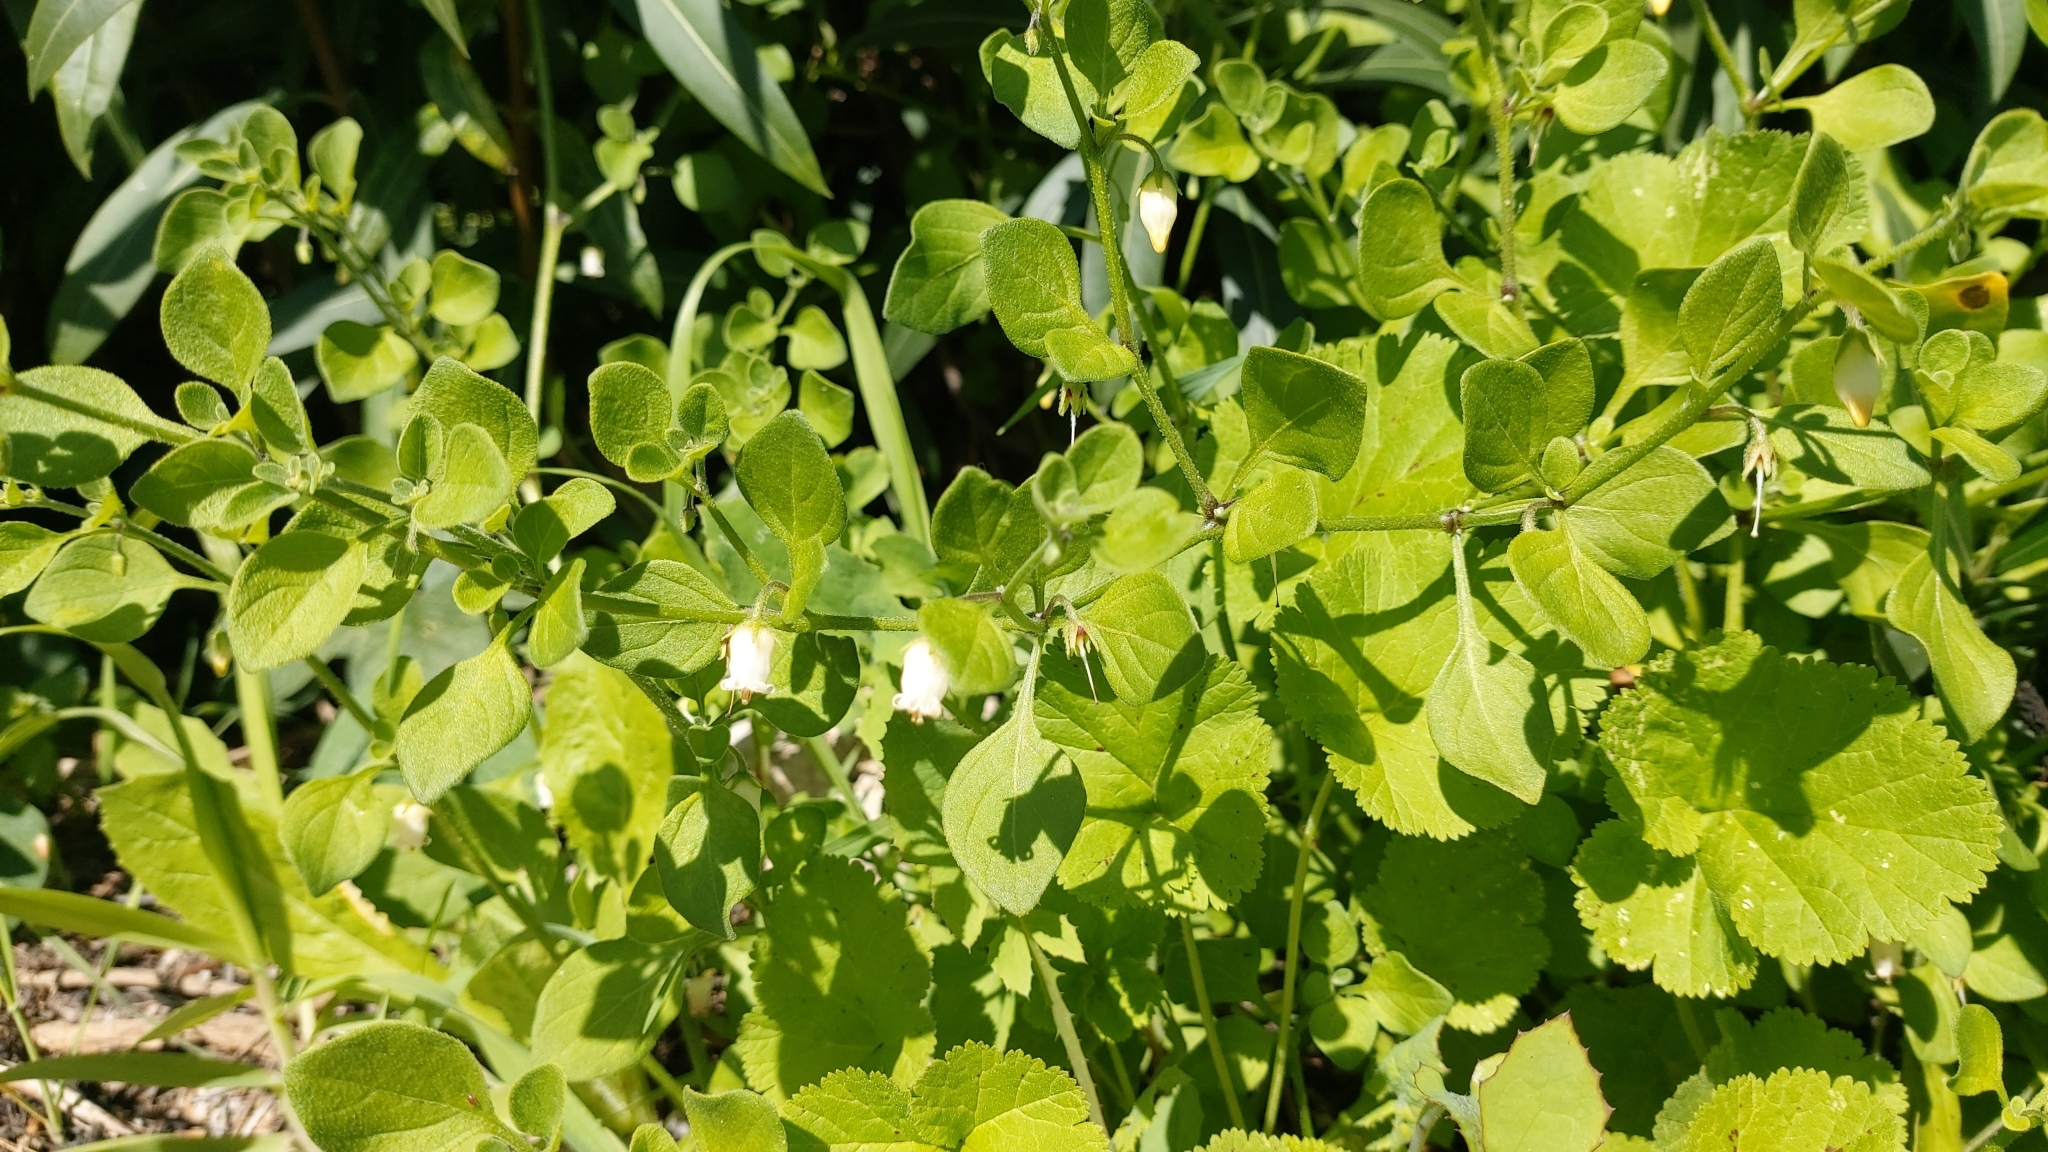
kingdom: Plantae
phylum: Tracheophyta
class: Magnoliopsida
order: Solanales
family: Solanaceae
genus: Salpichroa
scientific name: Salpichroa origanifolia
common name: Lily-of-the-valley-vine
